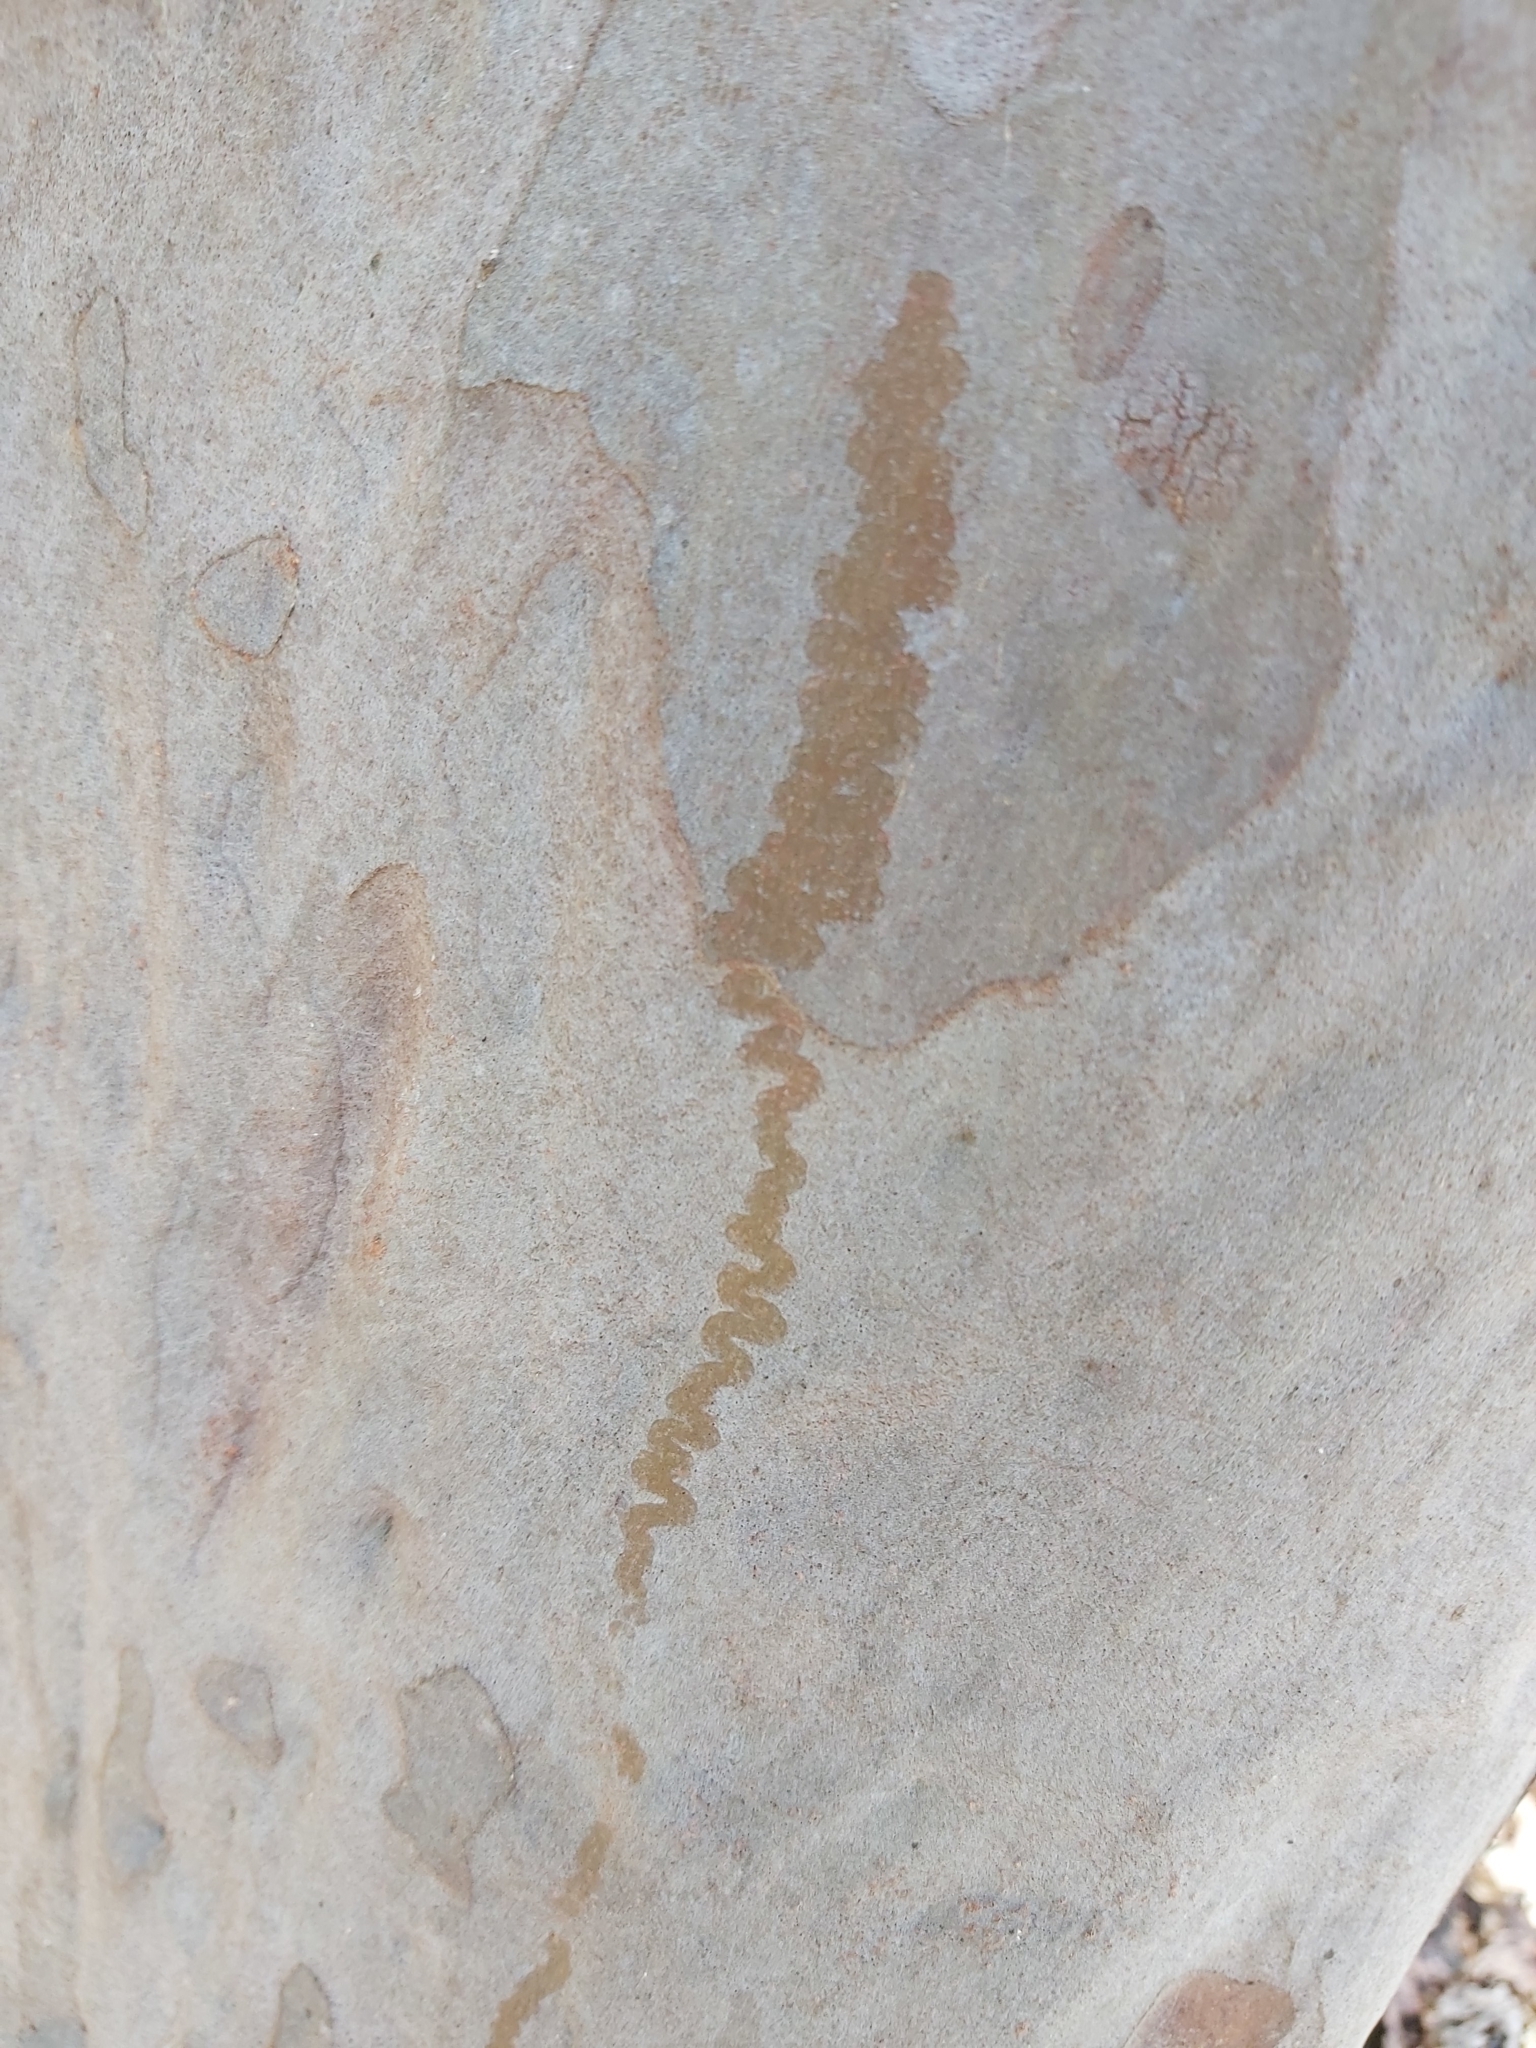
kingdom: Animalia
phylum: Mollusca
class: Gastropoda
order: Stylommatophora
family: Athoracophoridae
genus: Triboniophorus
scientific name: Triboniophorus graeffei
